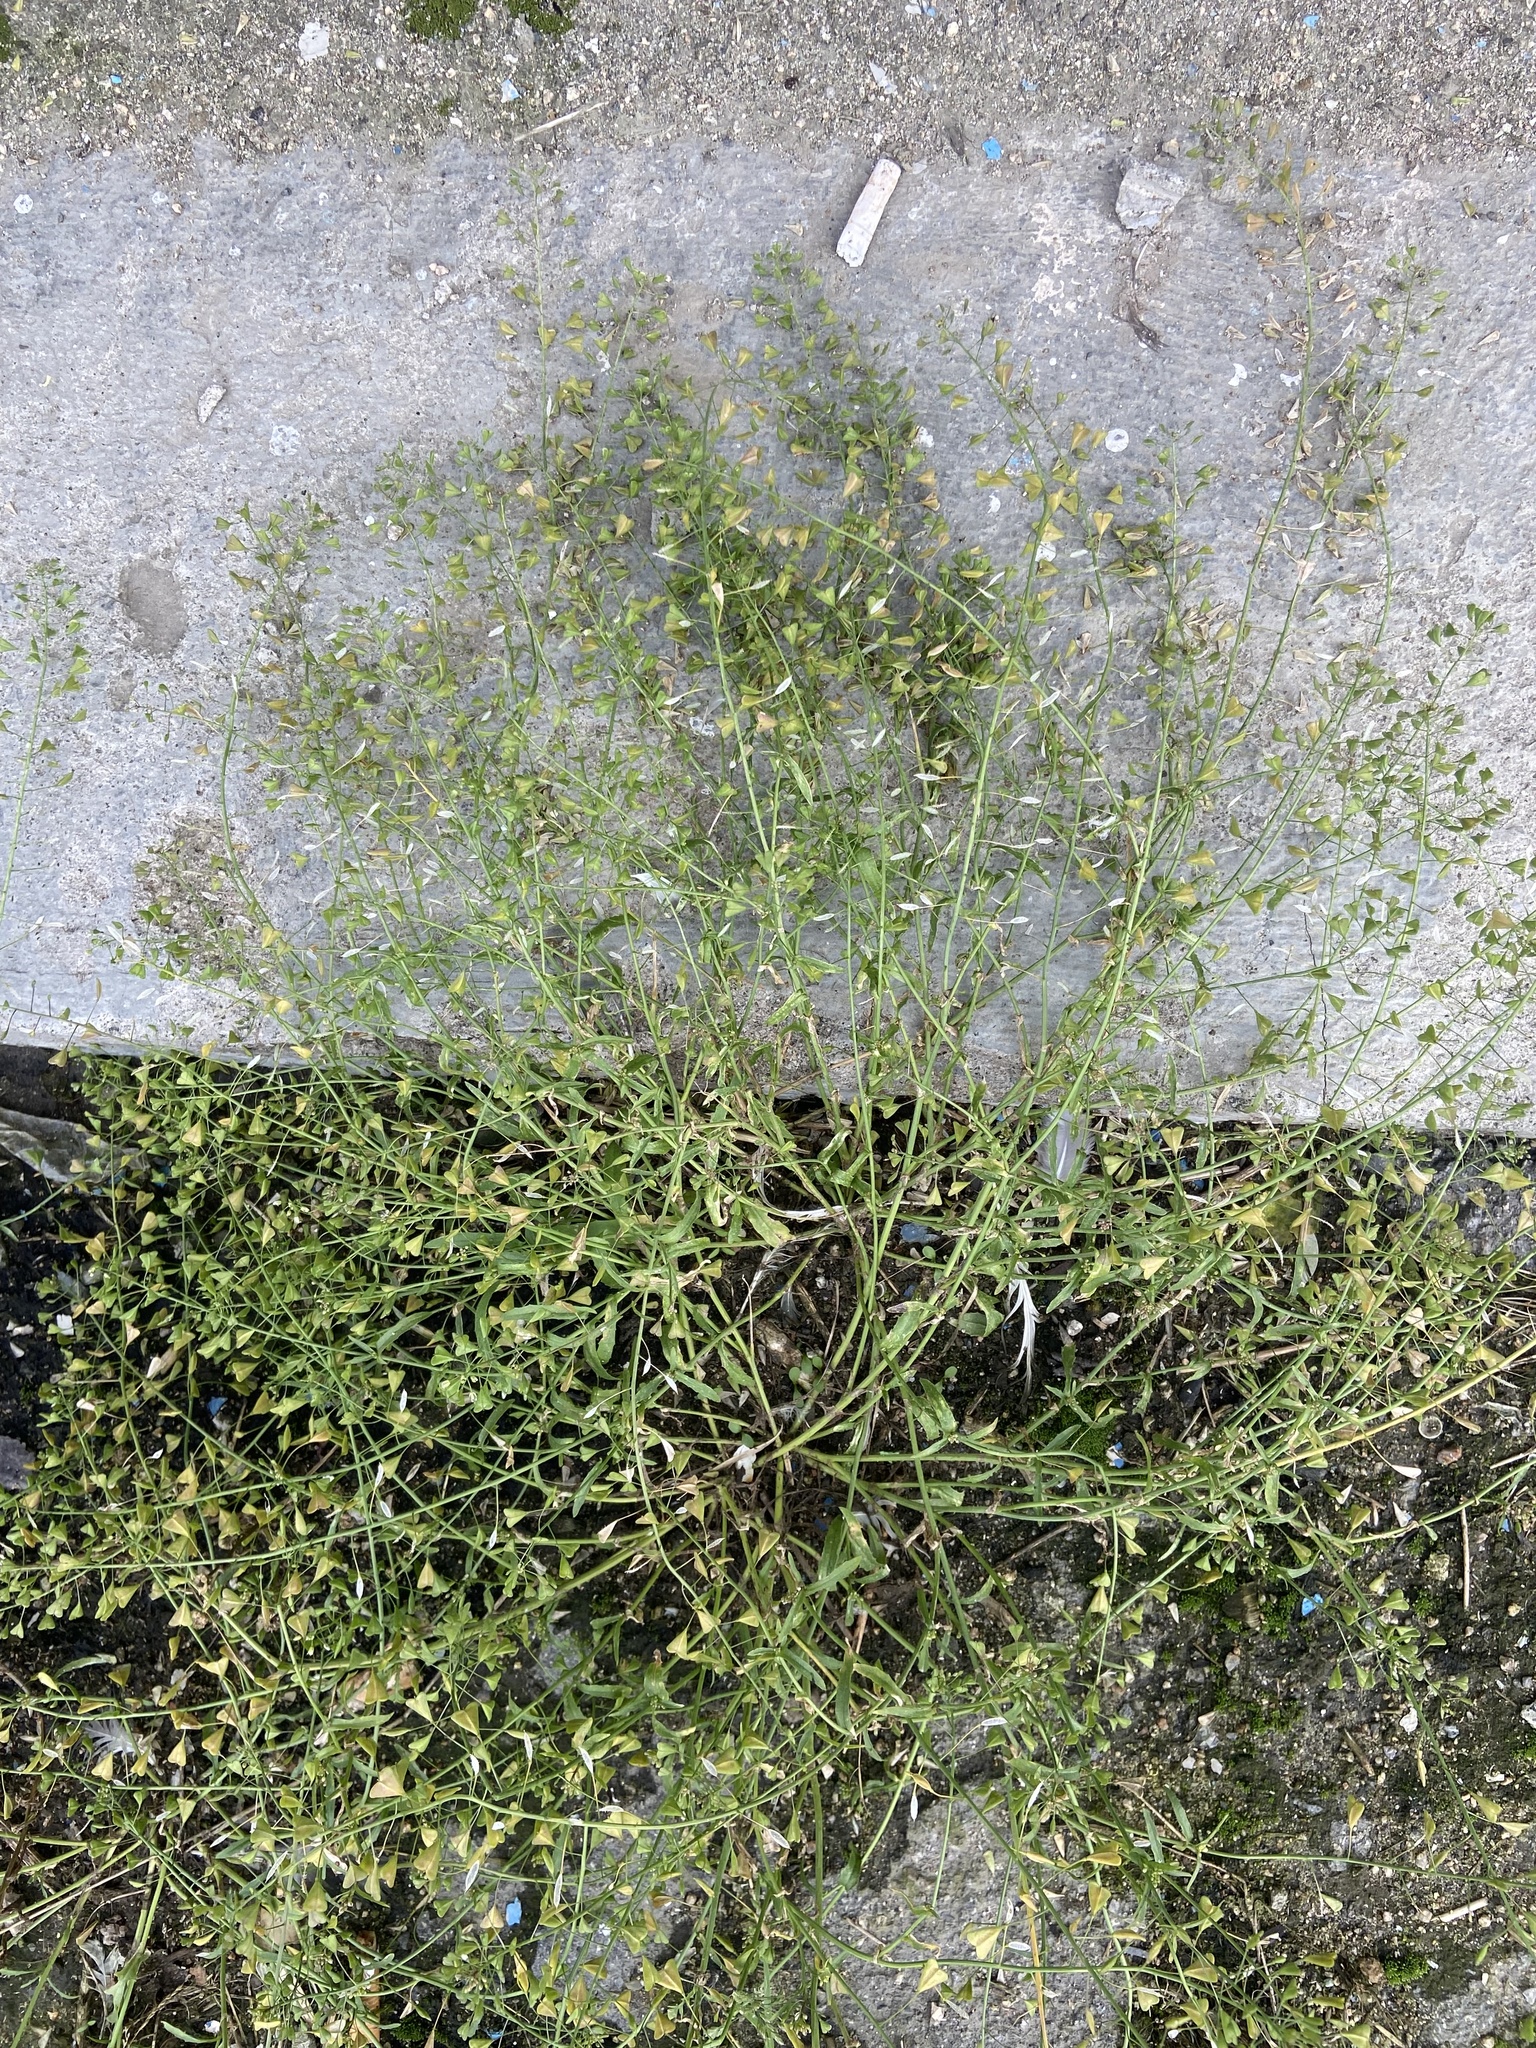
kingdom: Plantae
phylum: Tracheophyta
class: Magnoliopsida
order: Brassicales
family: Brassicaceae
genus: Capsella
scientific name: Capsella bursa-pastoris
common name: Shepherd's purse
